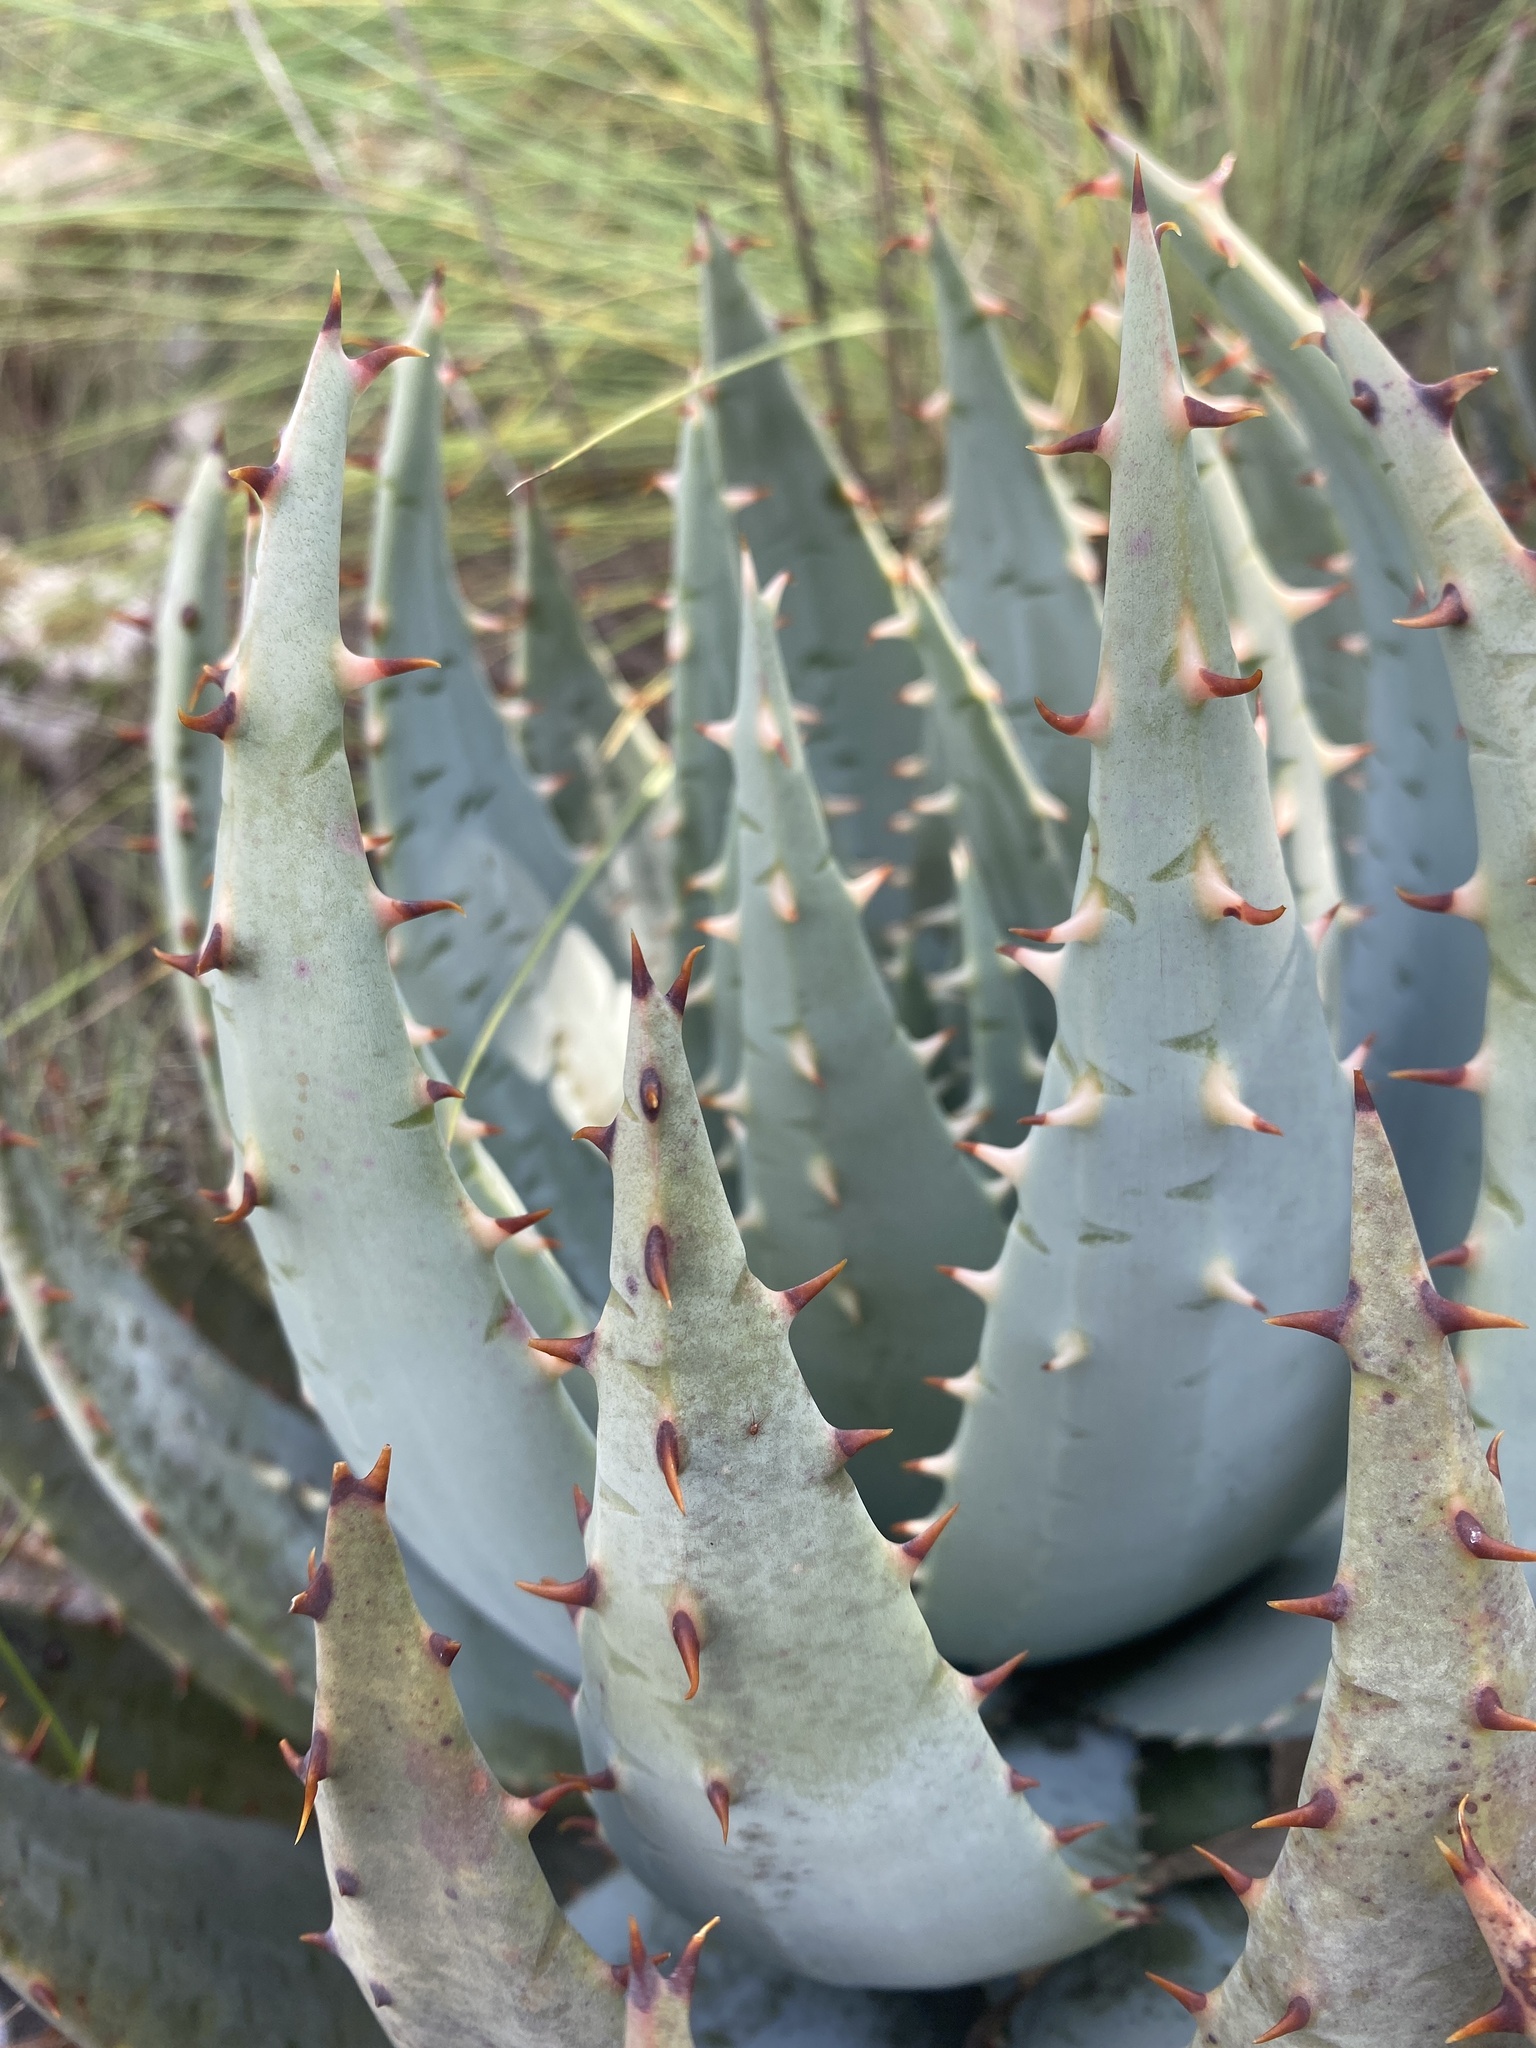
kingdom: Plantae
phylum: Tracheophyta
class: Liliopsida
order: Asparagales
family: Asphodelaceae
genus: Aloe
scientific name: Aloe peglerae
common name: Red-hot poker
